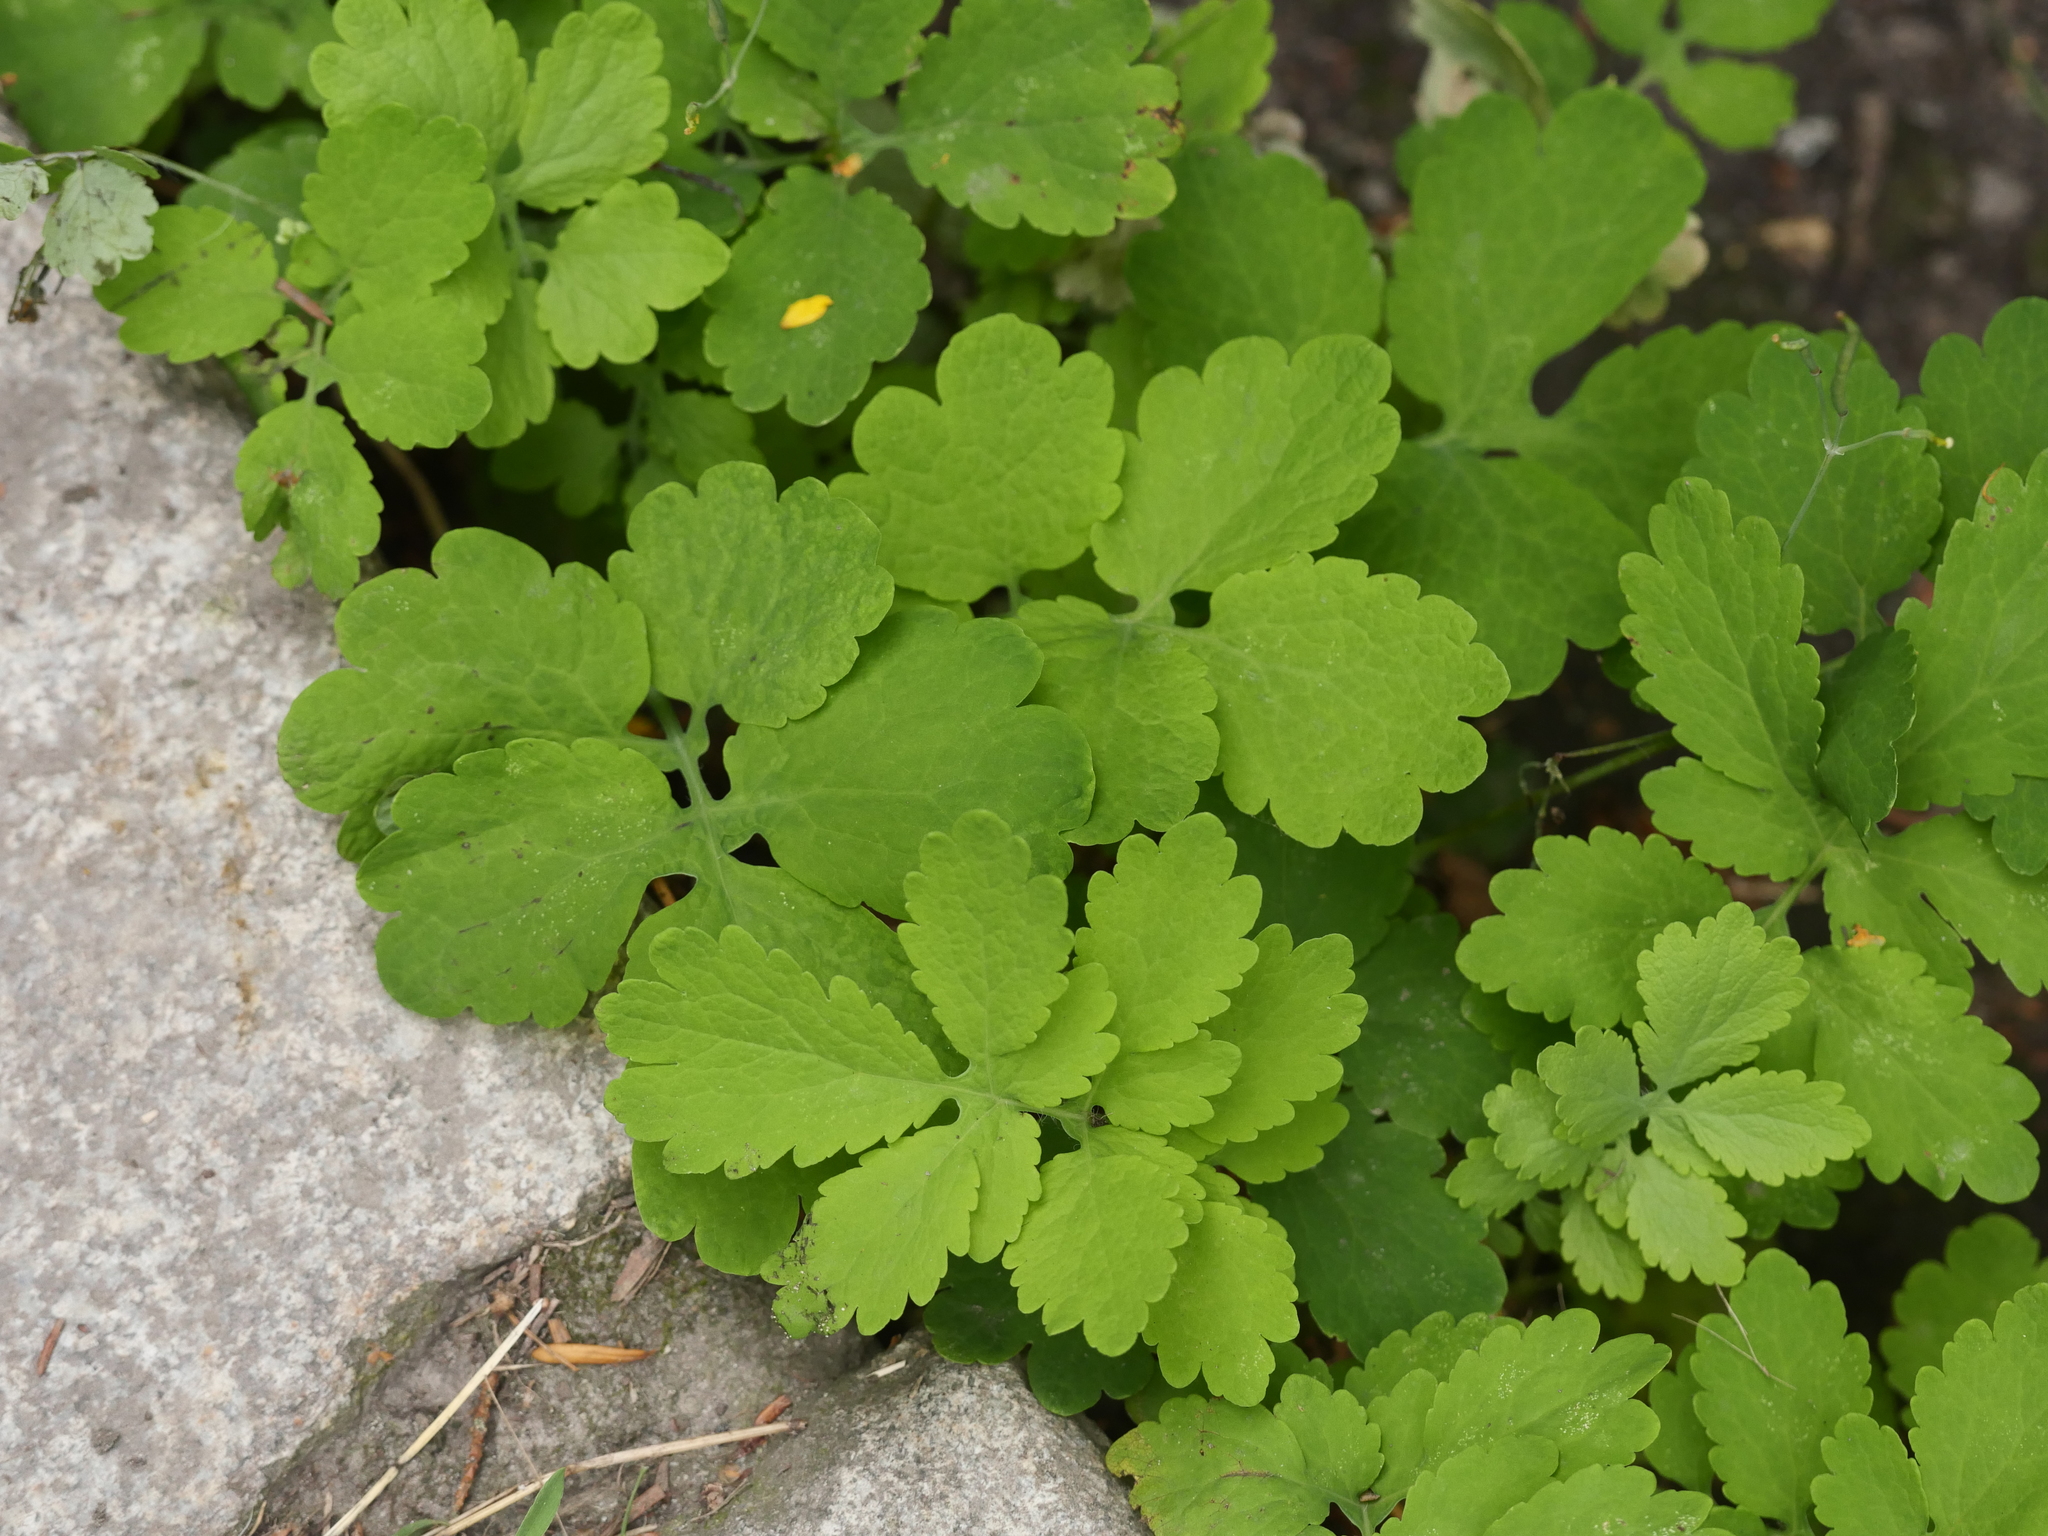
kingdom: Plantae
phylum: Tracheophyta
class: Magnoliopsida
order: Ranunculales
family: Papaveraceae
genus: Chelidonium
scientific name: Chelidonium majus
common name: Greater celandine
